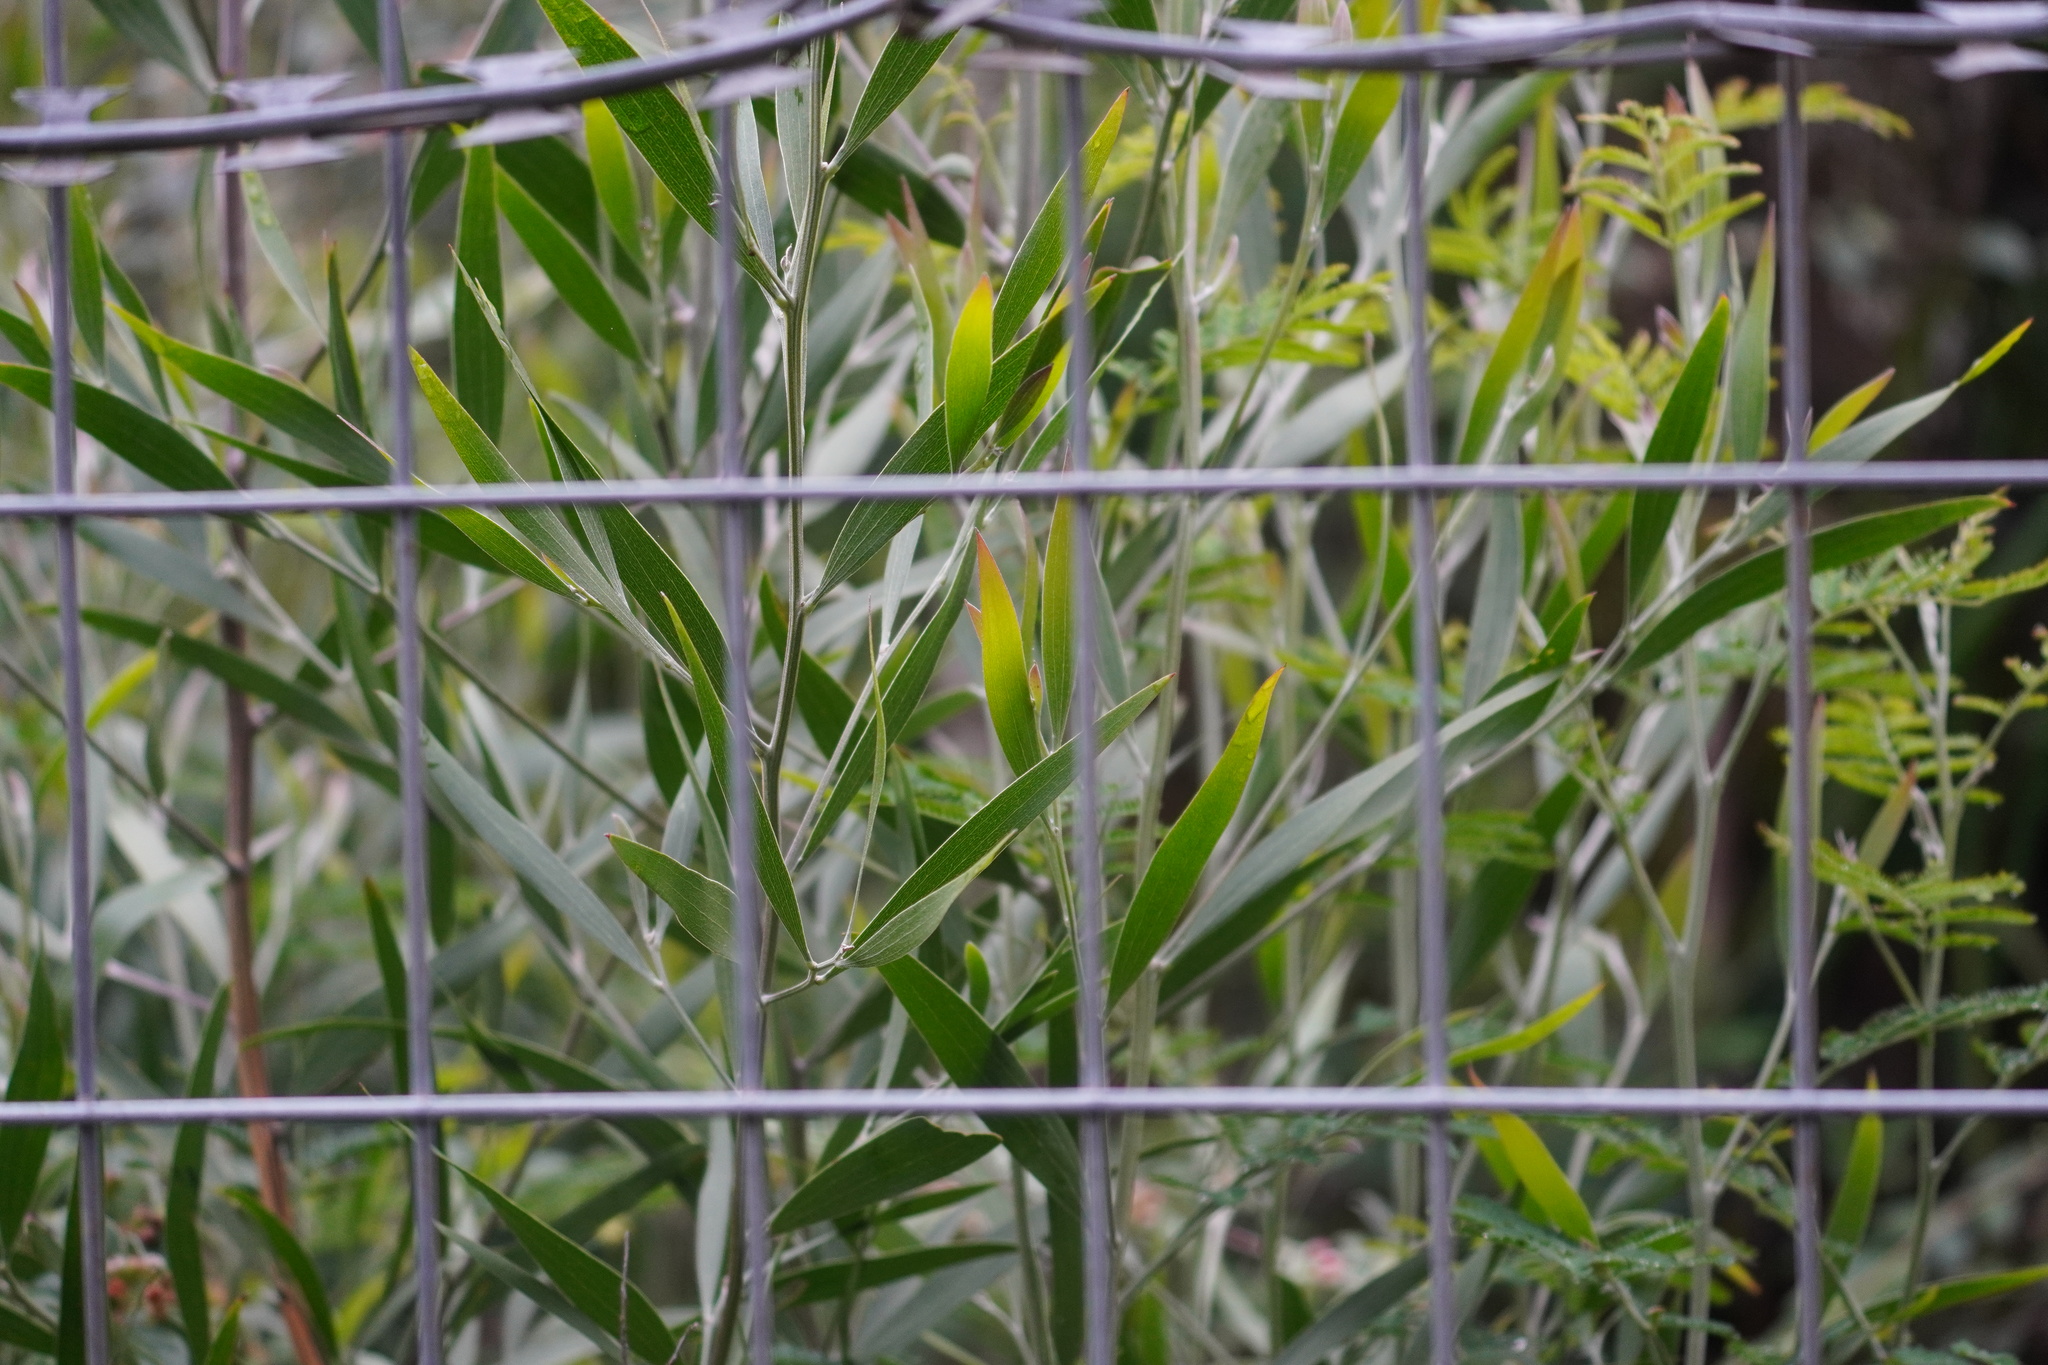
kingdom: Plantae
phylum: Tracheophyta
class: Magnoliopsida
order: Fabales
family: Fabaceae
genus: Acacia
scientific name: Acacia melanoxylon
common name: Blackwood
